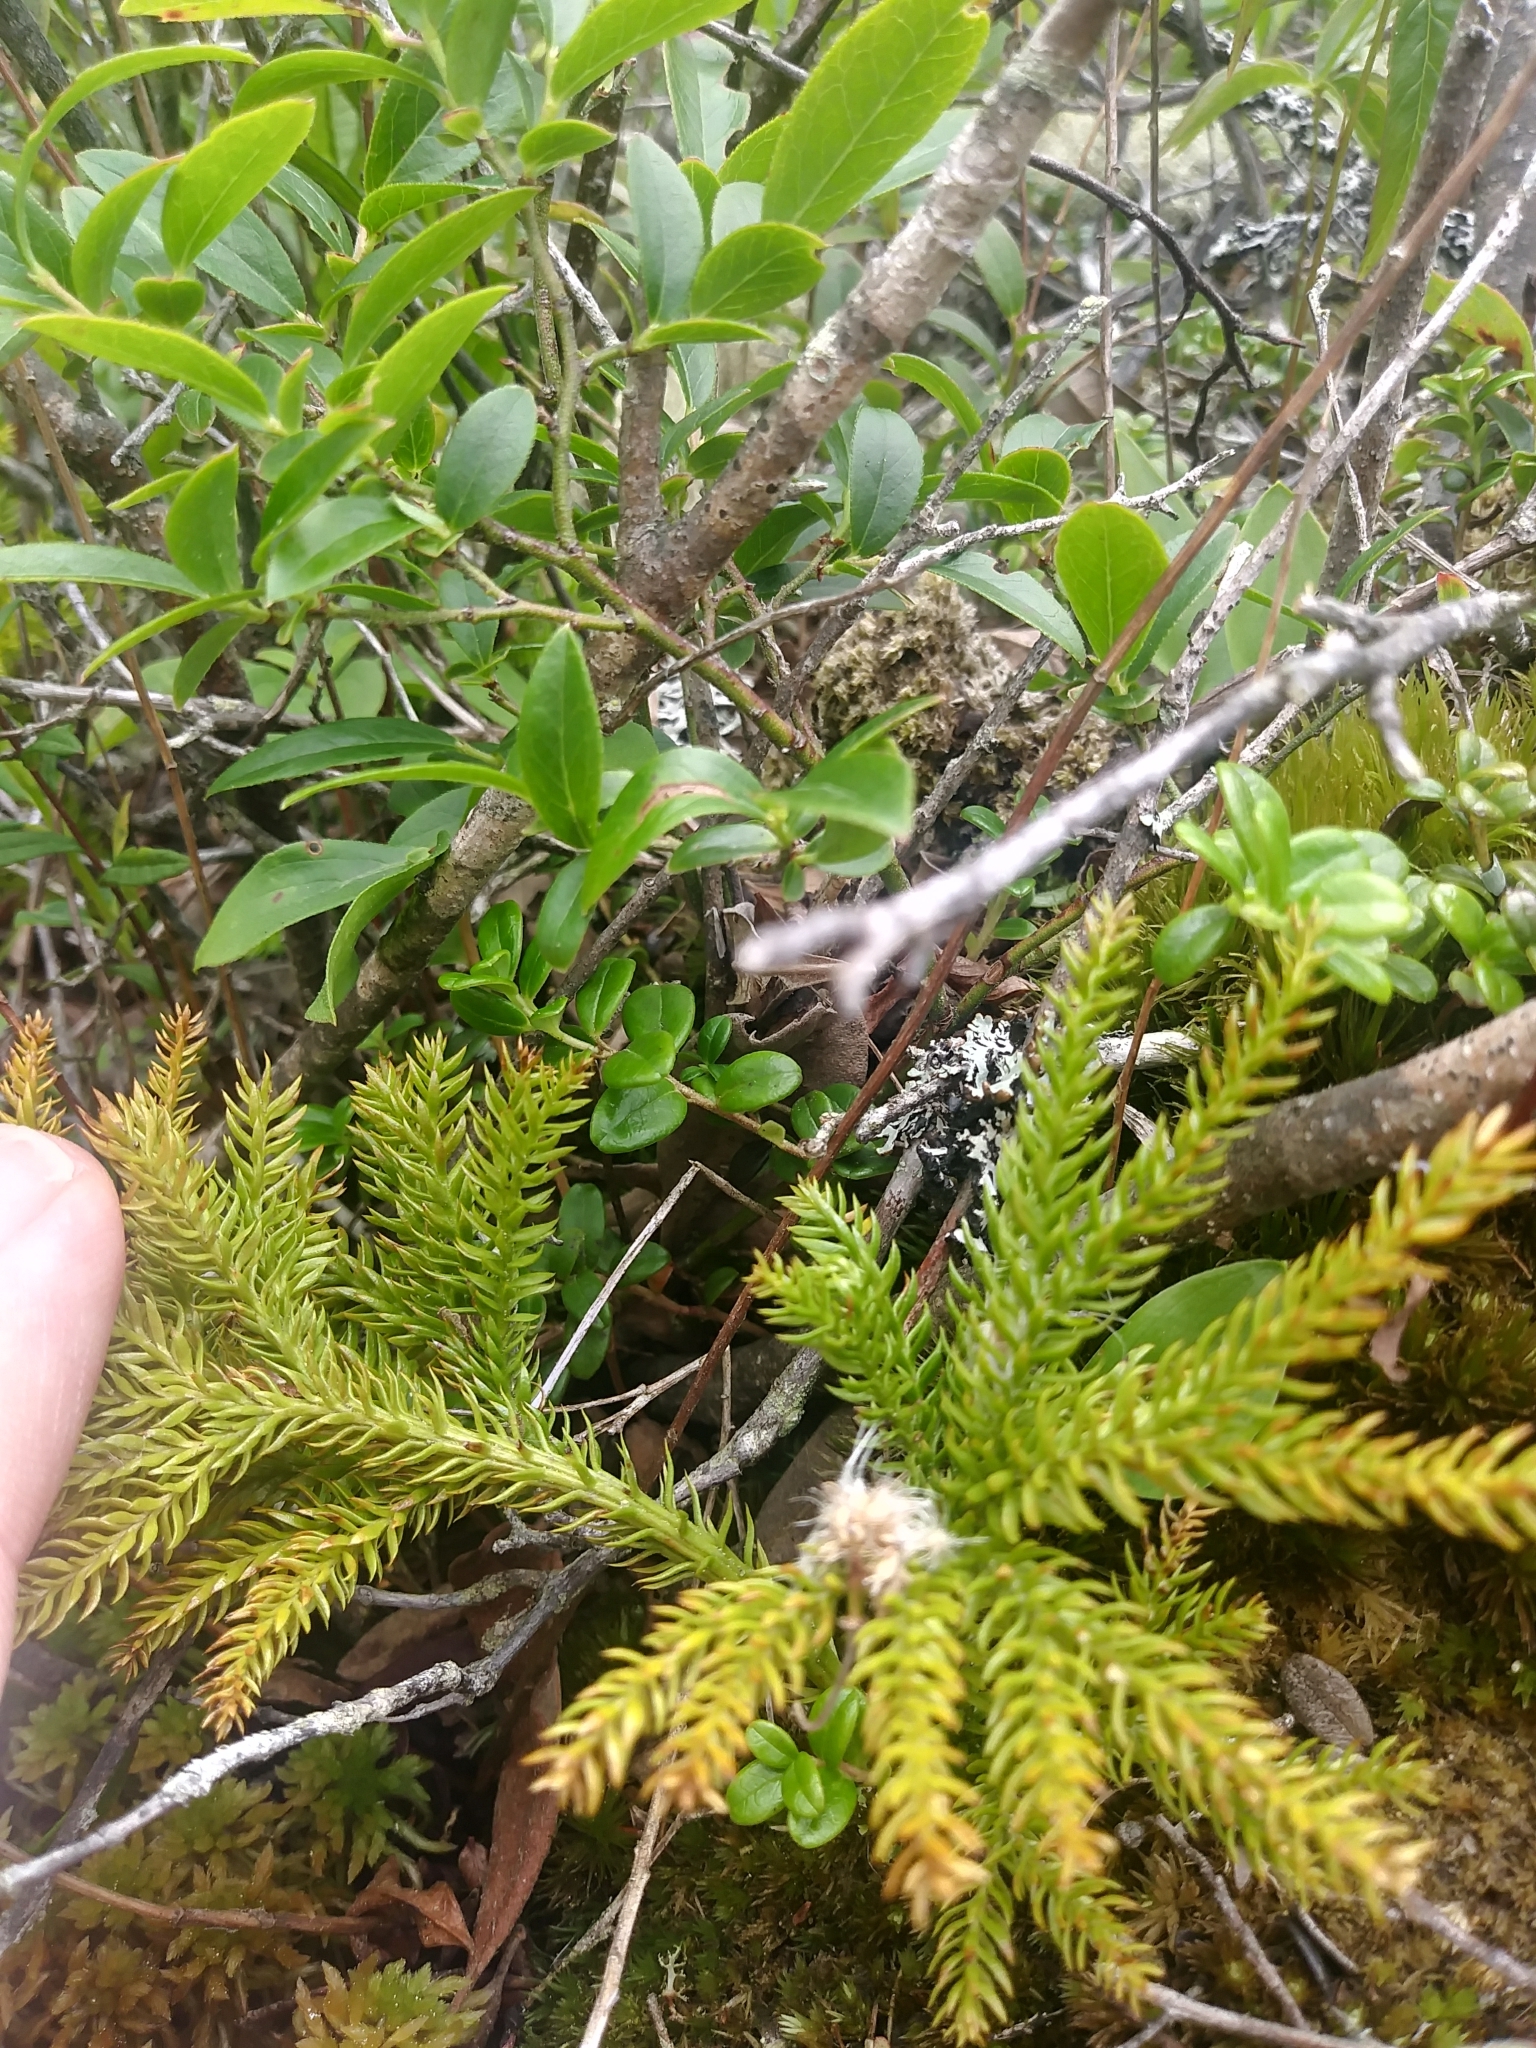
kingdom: Plantae
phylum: Tracheophyta
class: Lycopodiopsida
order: Lycopodiales
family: Lycopodiaceae
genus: Dendrolycopodium
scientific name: Dendrolycopodium dendroideum
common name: Northern tree-clubmoss
